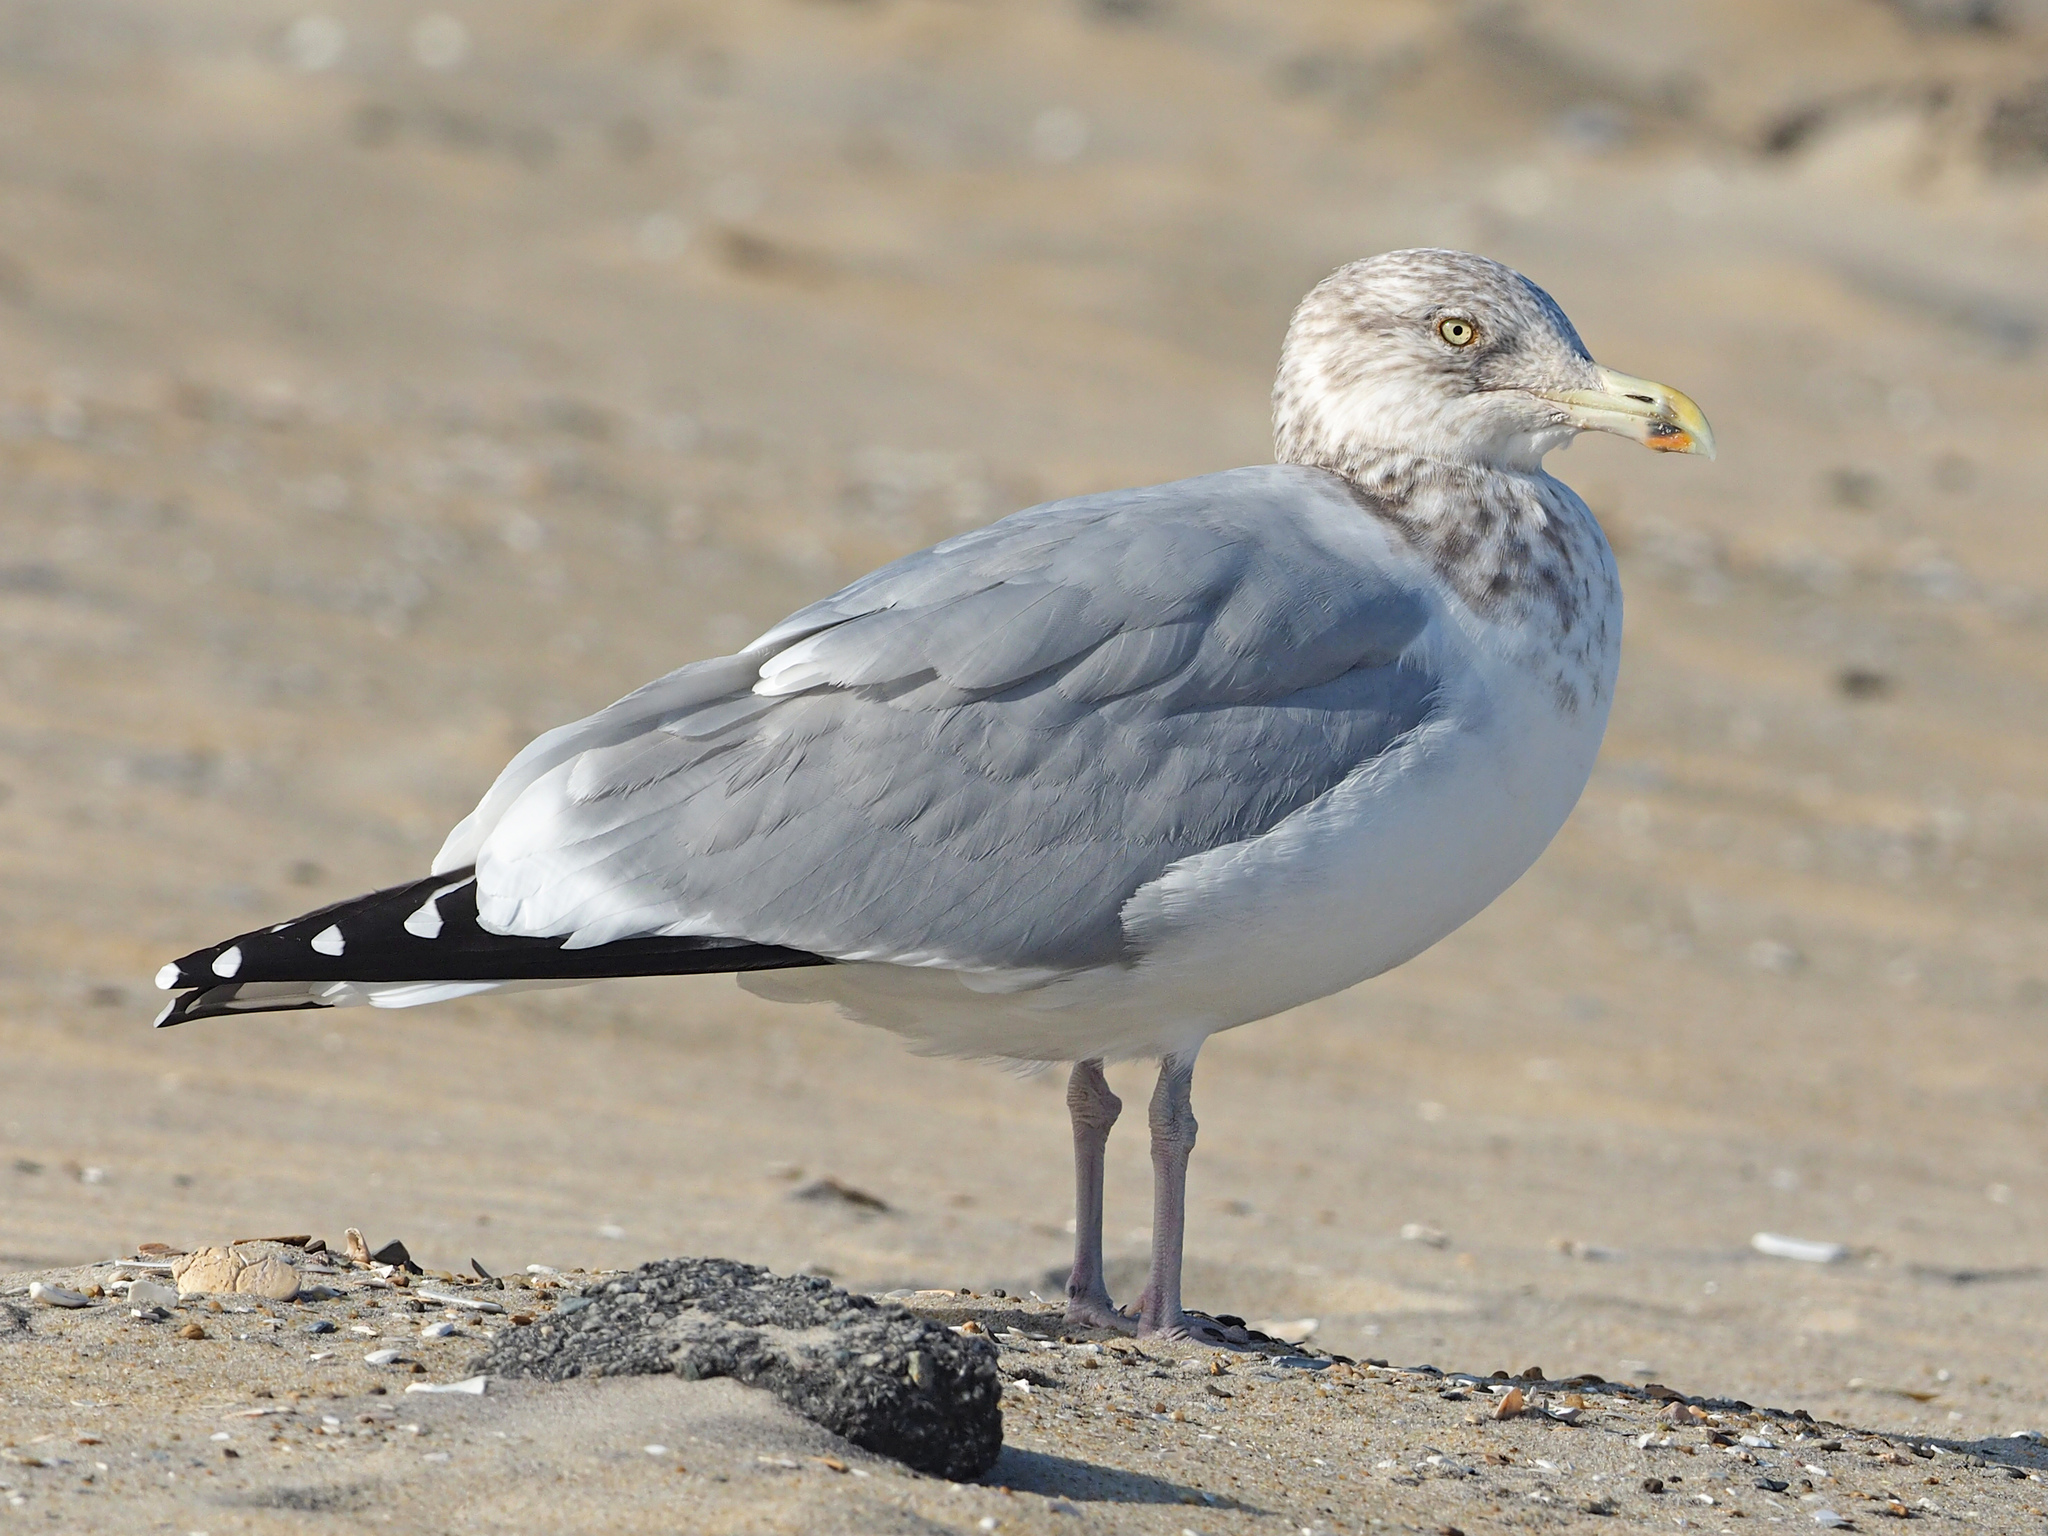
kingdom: Animalia
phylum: Chordata
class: Aves
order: Charadriiformes
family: Laridae
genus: Larus
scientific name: Larus argentatus
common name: Herring gull
